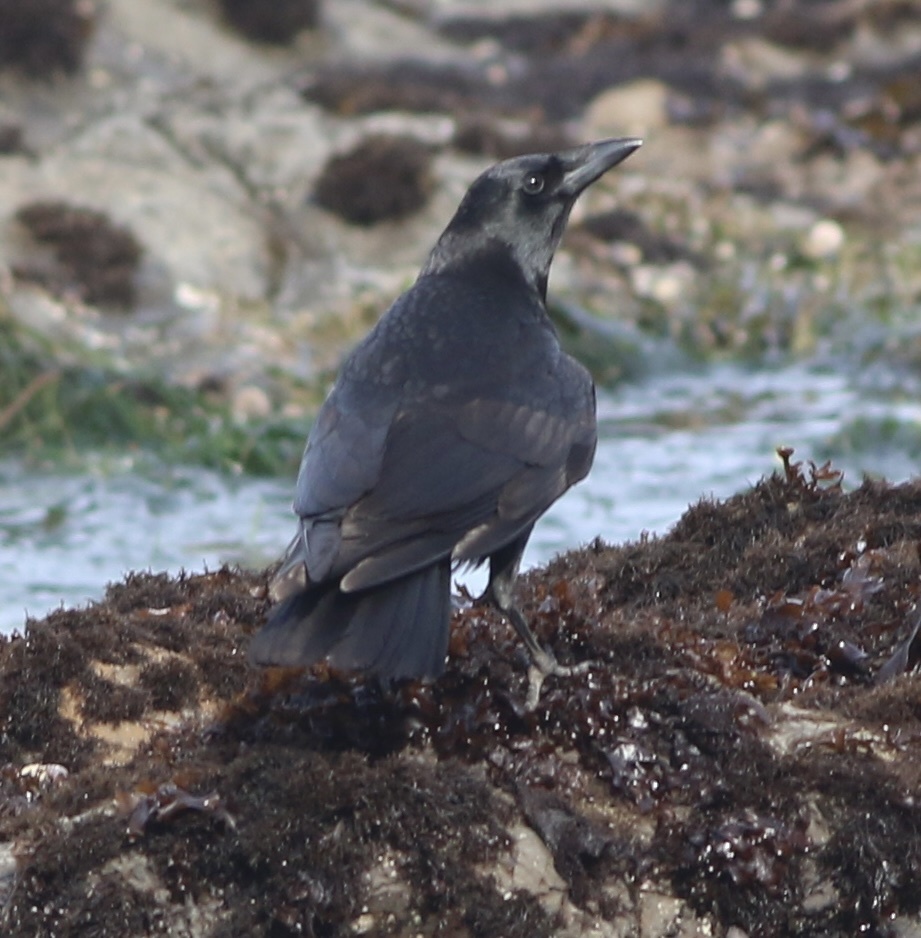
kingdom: Animalia
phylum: Chordata
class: Aves
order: Passeriformes
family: Corvidae
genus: Corvus
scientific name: Corvus brachyrhynchos
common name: American crow
